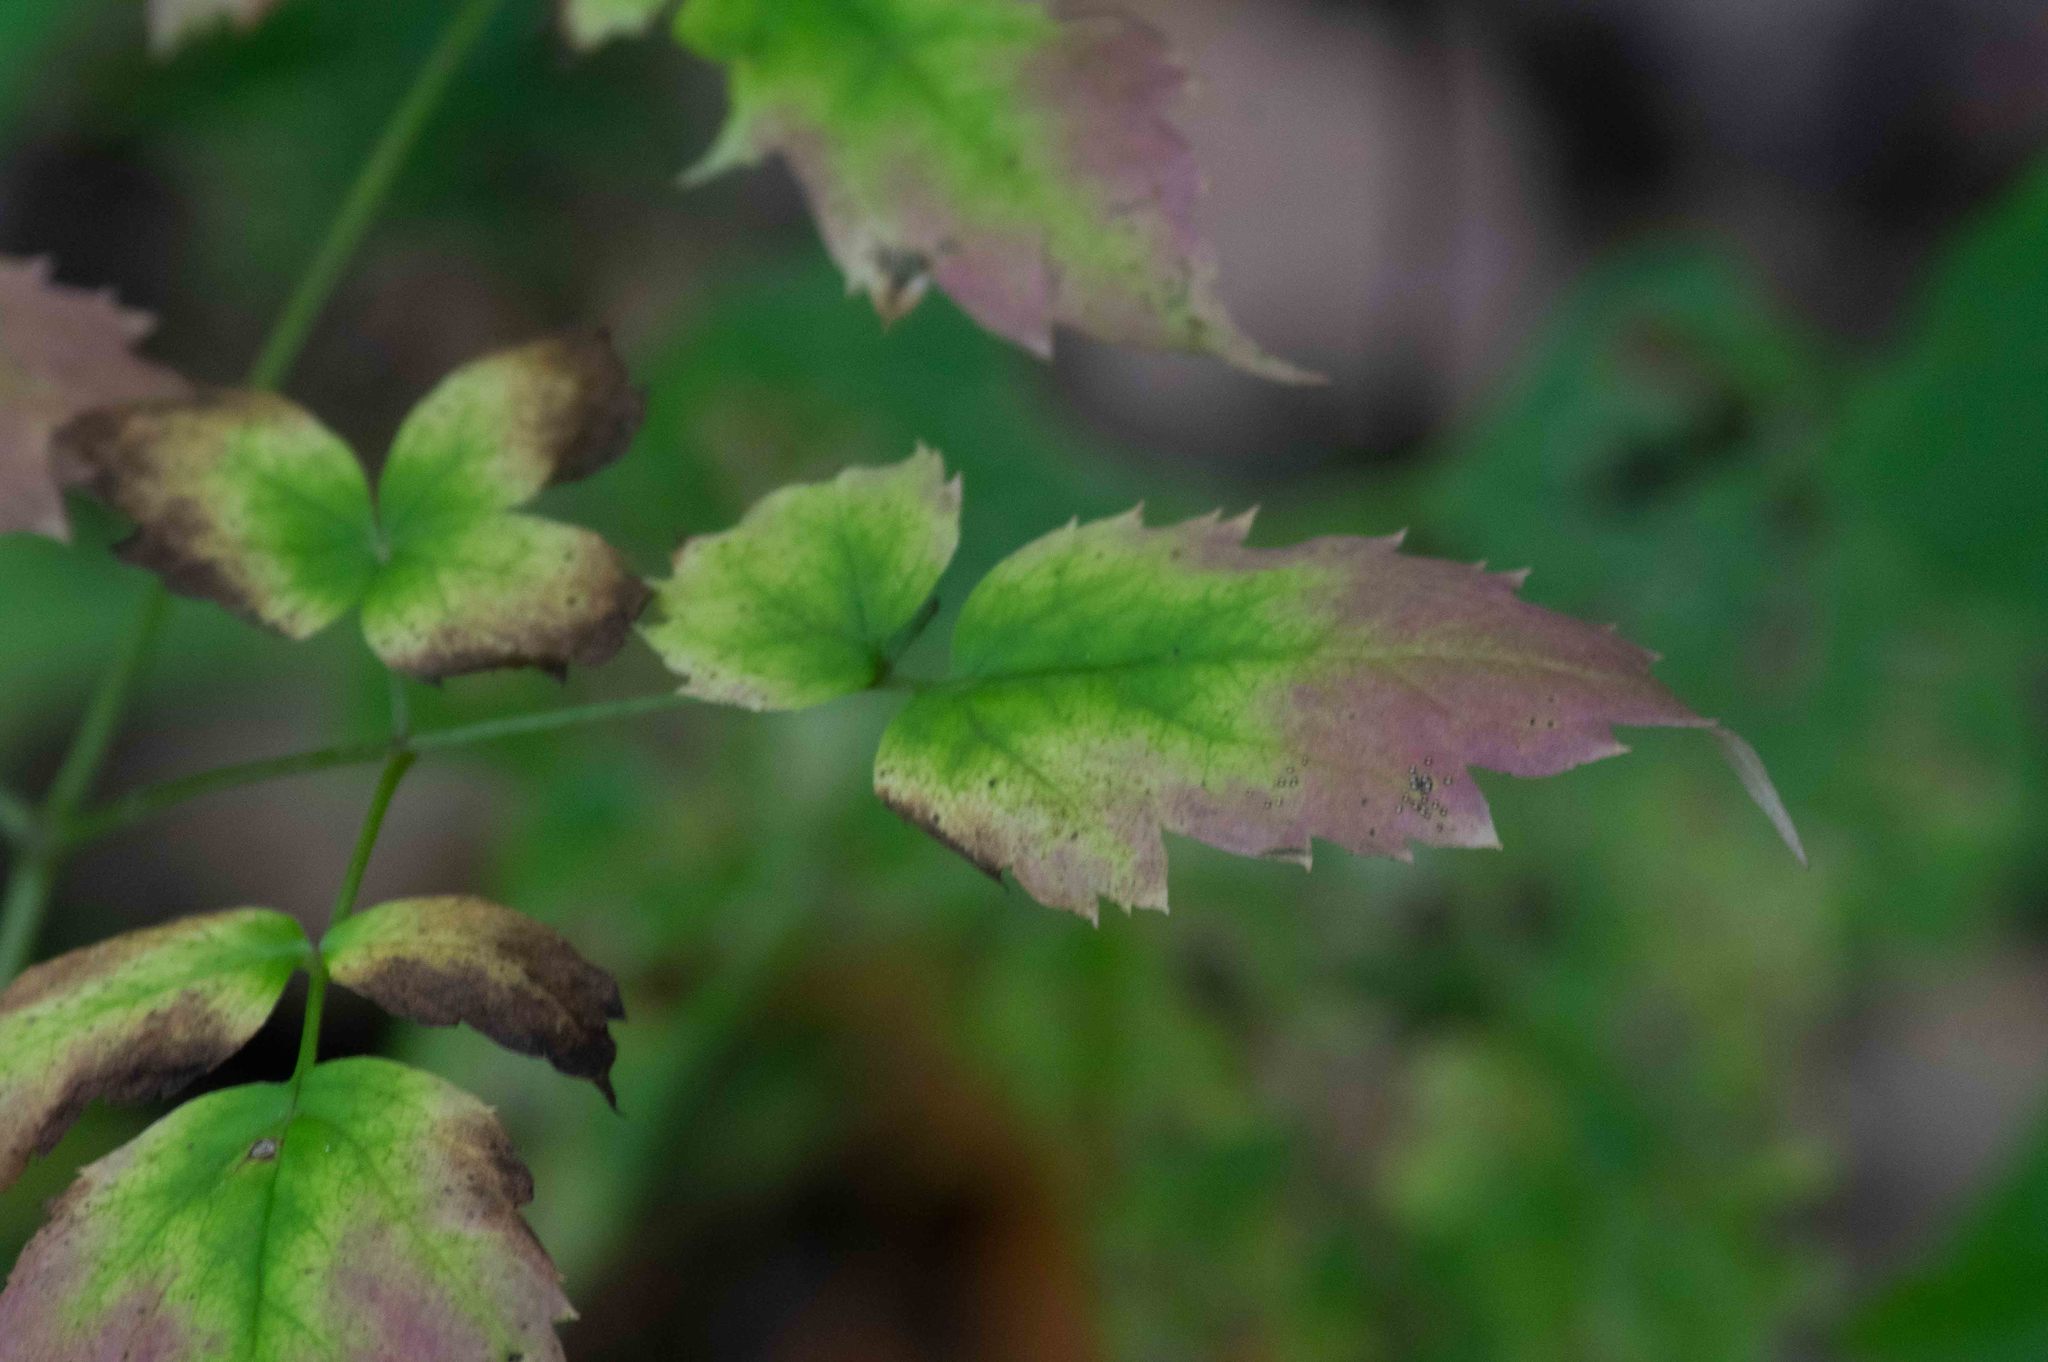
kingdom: Plantae
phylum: Tracheophyta
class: Magnoliopsida
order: Ranunculales
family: Ranunculaceae
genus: Actaea
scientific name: Actaea pachypoda
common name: Doll's-eyes
